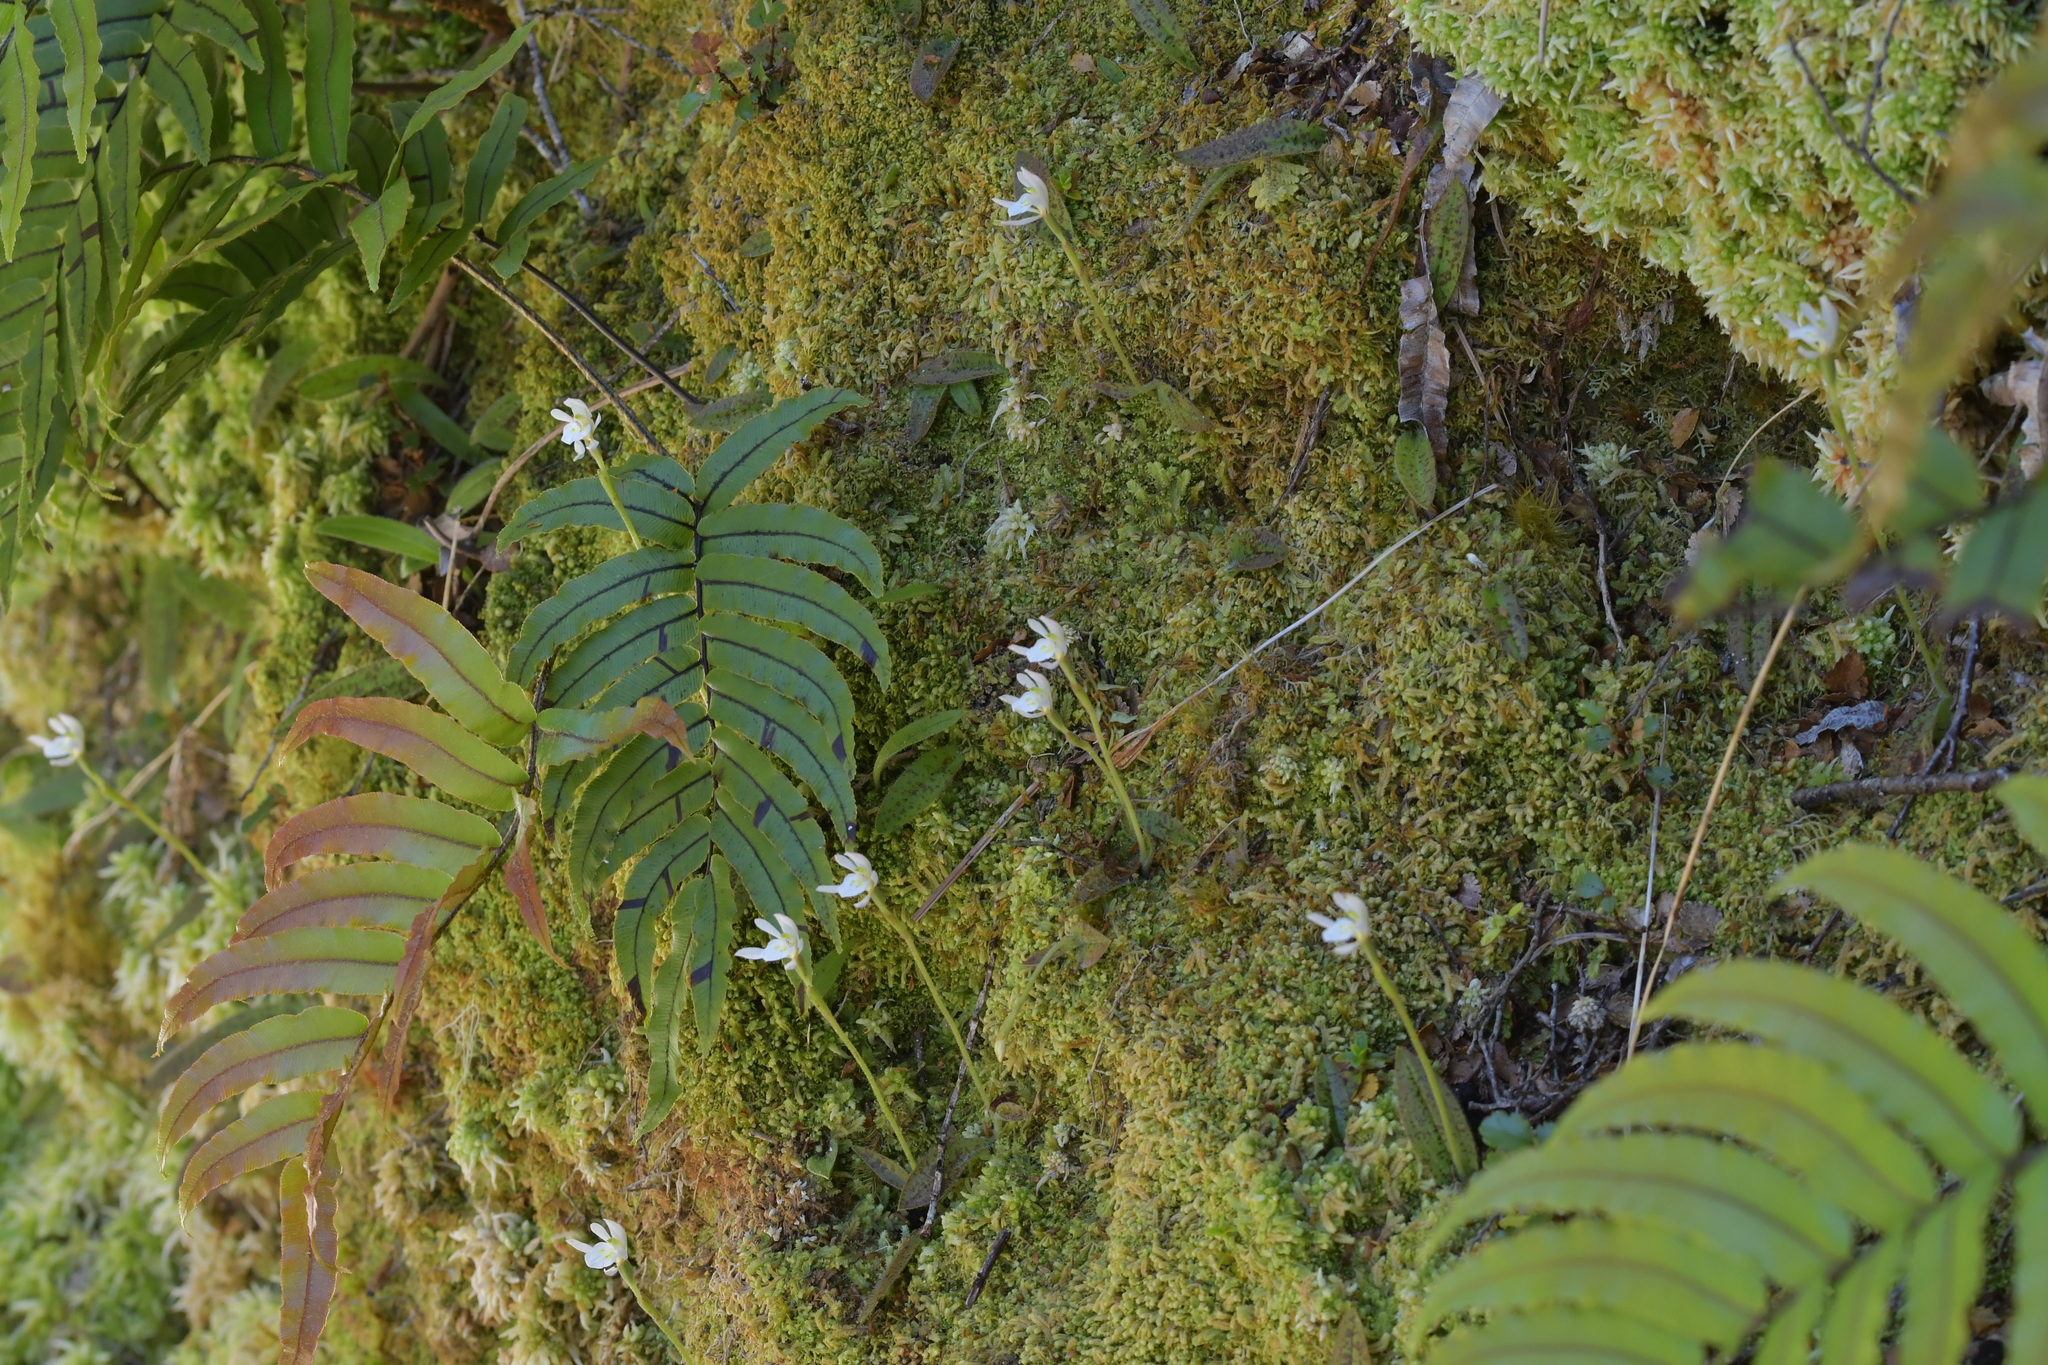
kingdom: Plantae
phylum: Tracheophyta
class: Liliopsida
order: Asparagales
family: Orchidaceae
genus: Aporostylis
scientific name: Aporostylis bifolia
